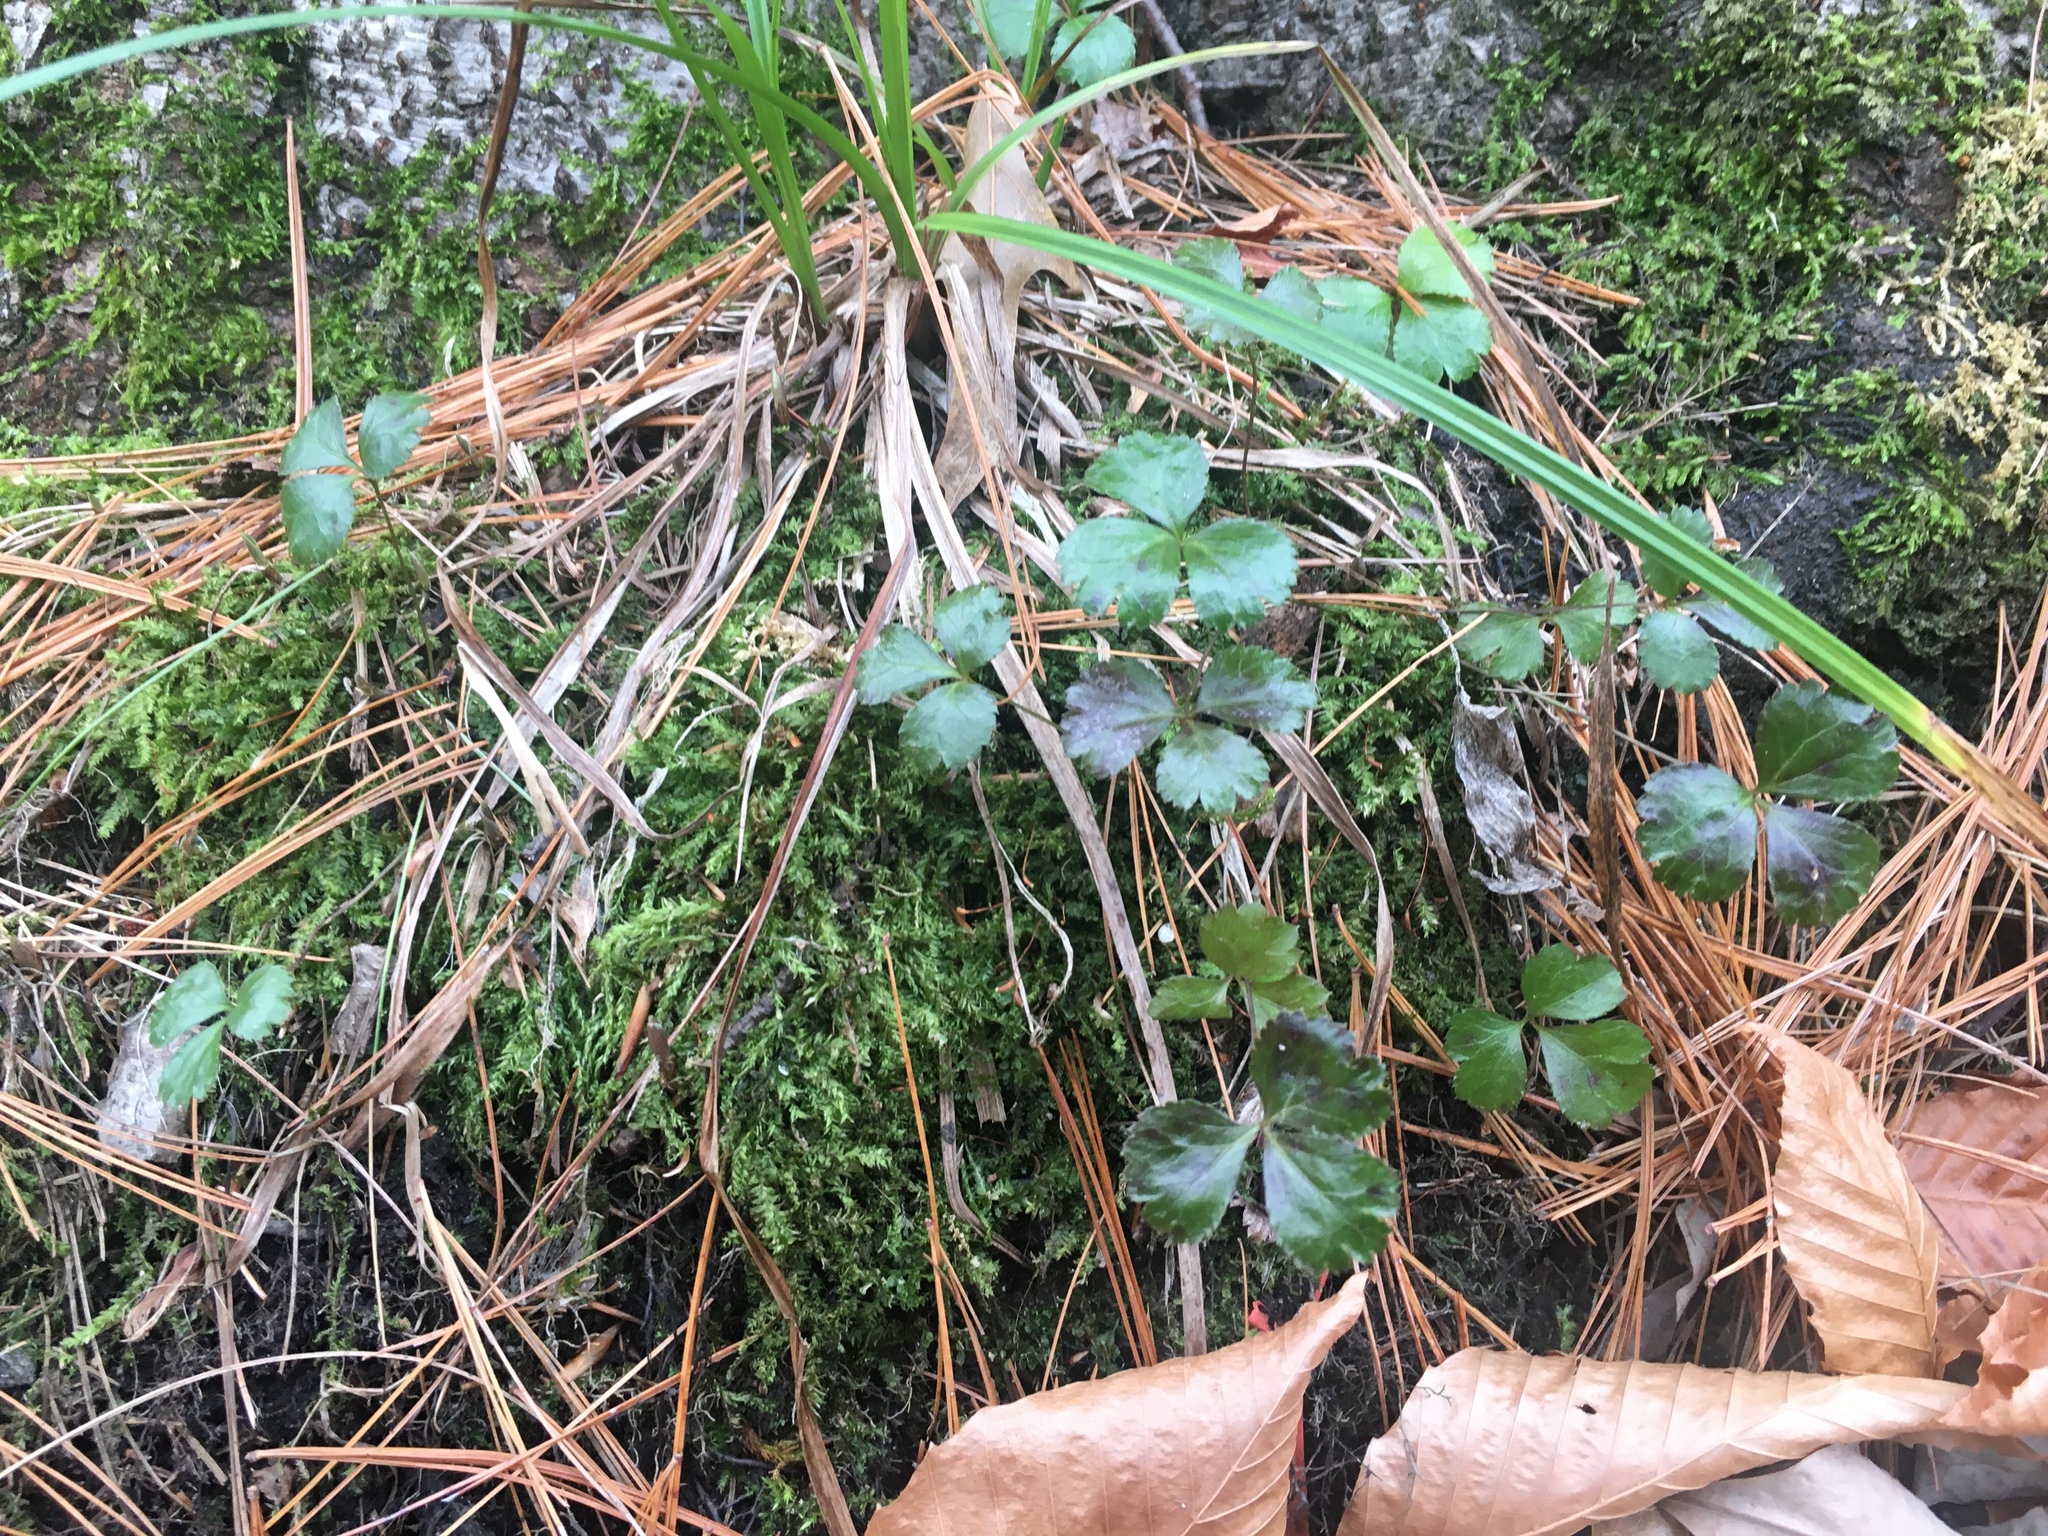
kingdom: Plantae
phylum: Tracheophyta
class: Magnoliopsida
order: Ranunculales
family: Ranunculaceae
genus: Coptis
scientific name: Coptis trifolia
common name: Canker-root
